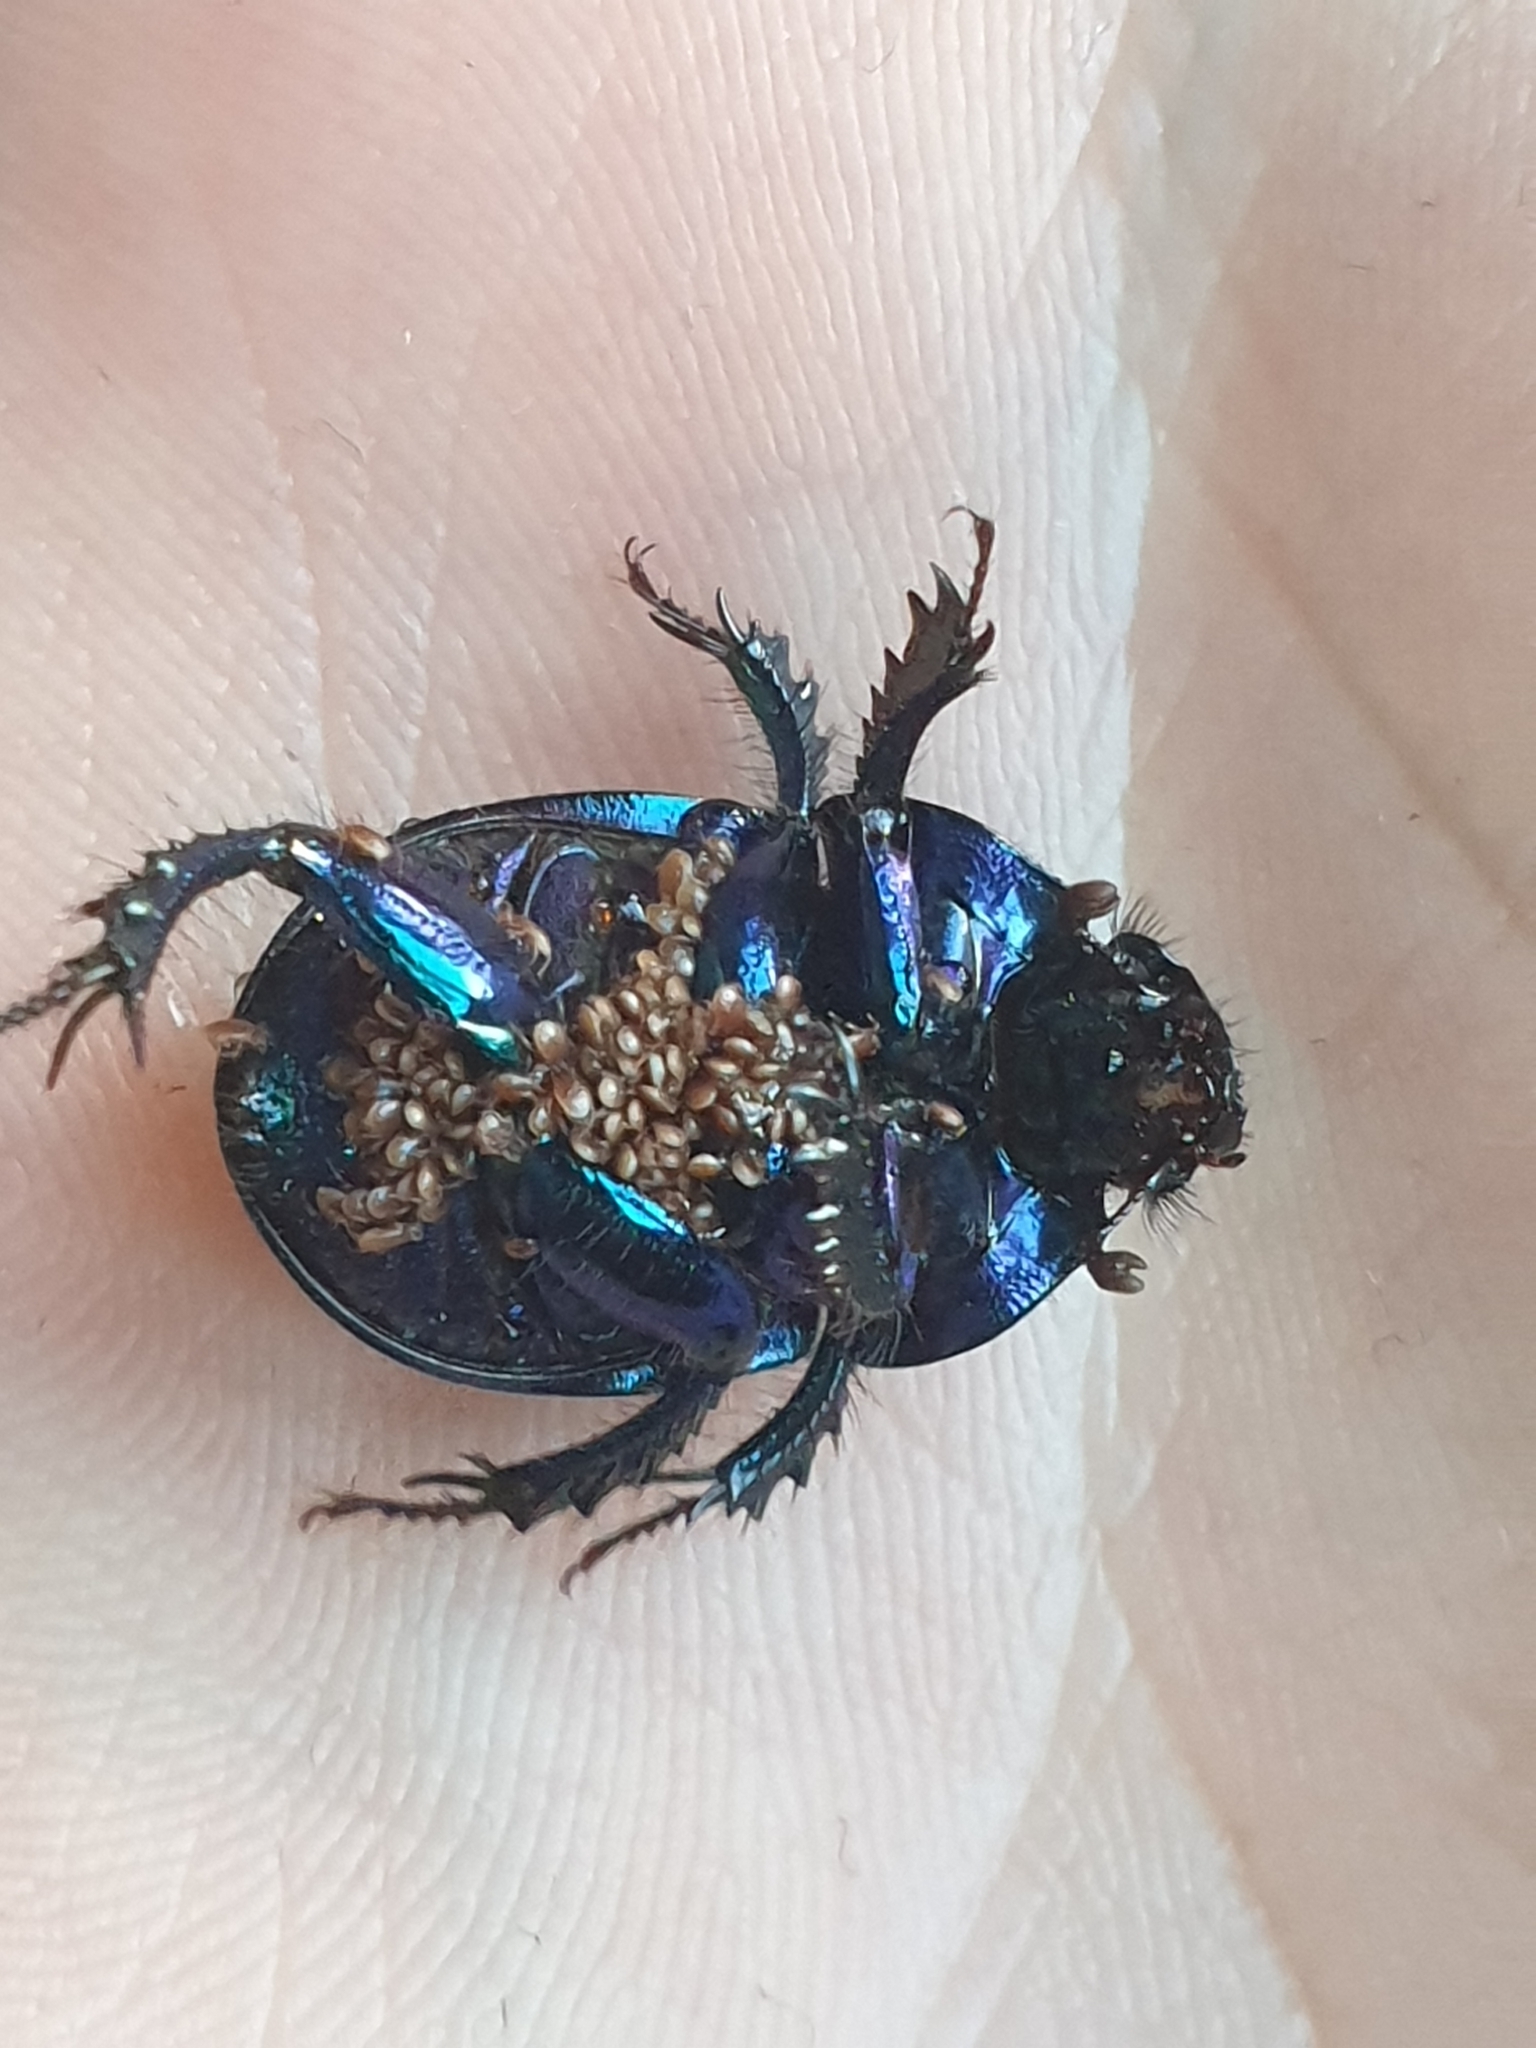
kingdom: Animalia
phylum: Arthropoda
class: Insecta
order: Coleoptera
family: Geotrupidae
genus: Anoplotrupes
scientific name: Anoplotrupes stercorosus
